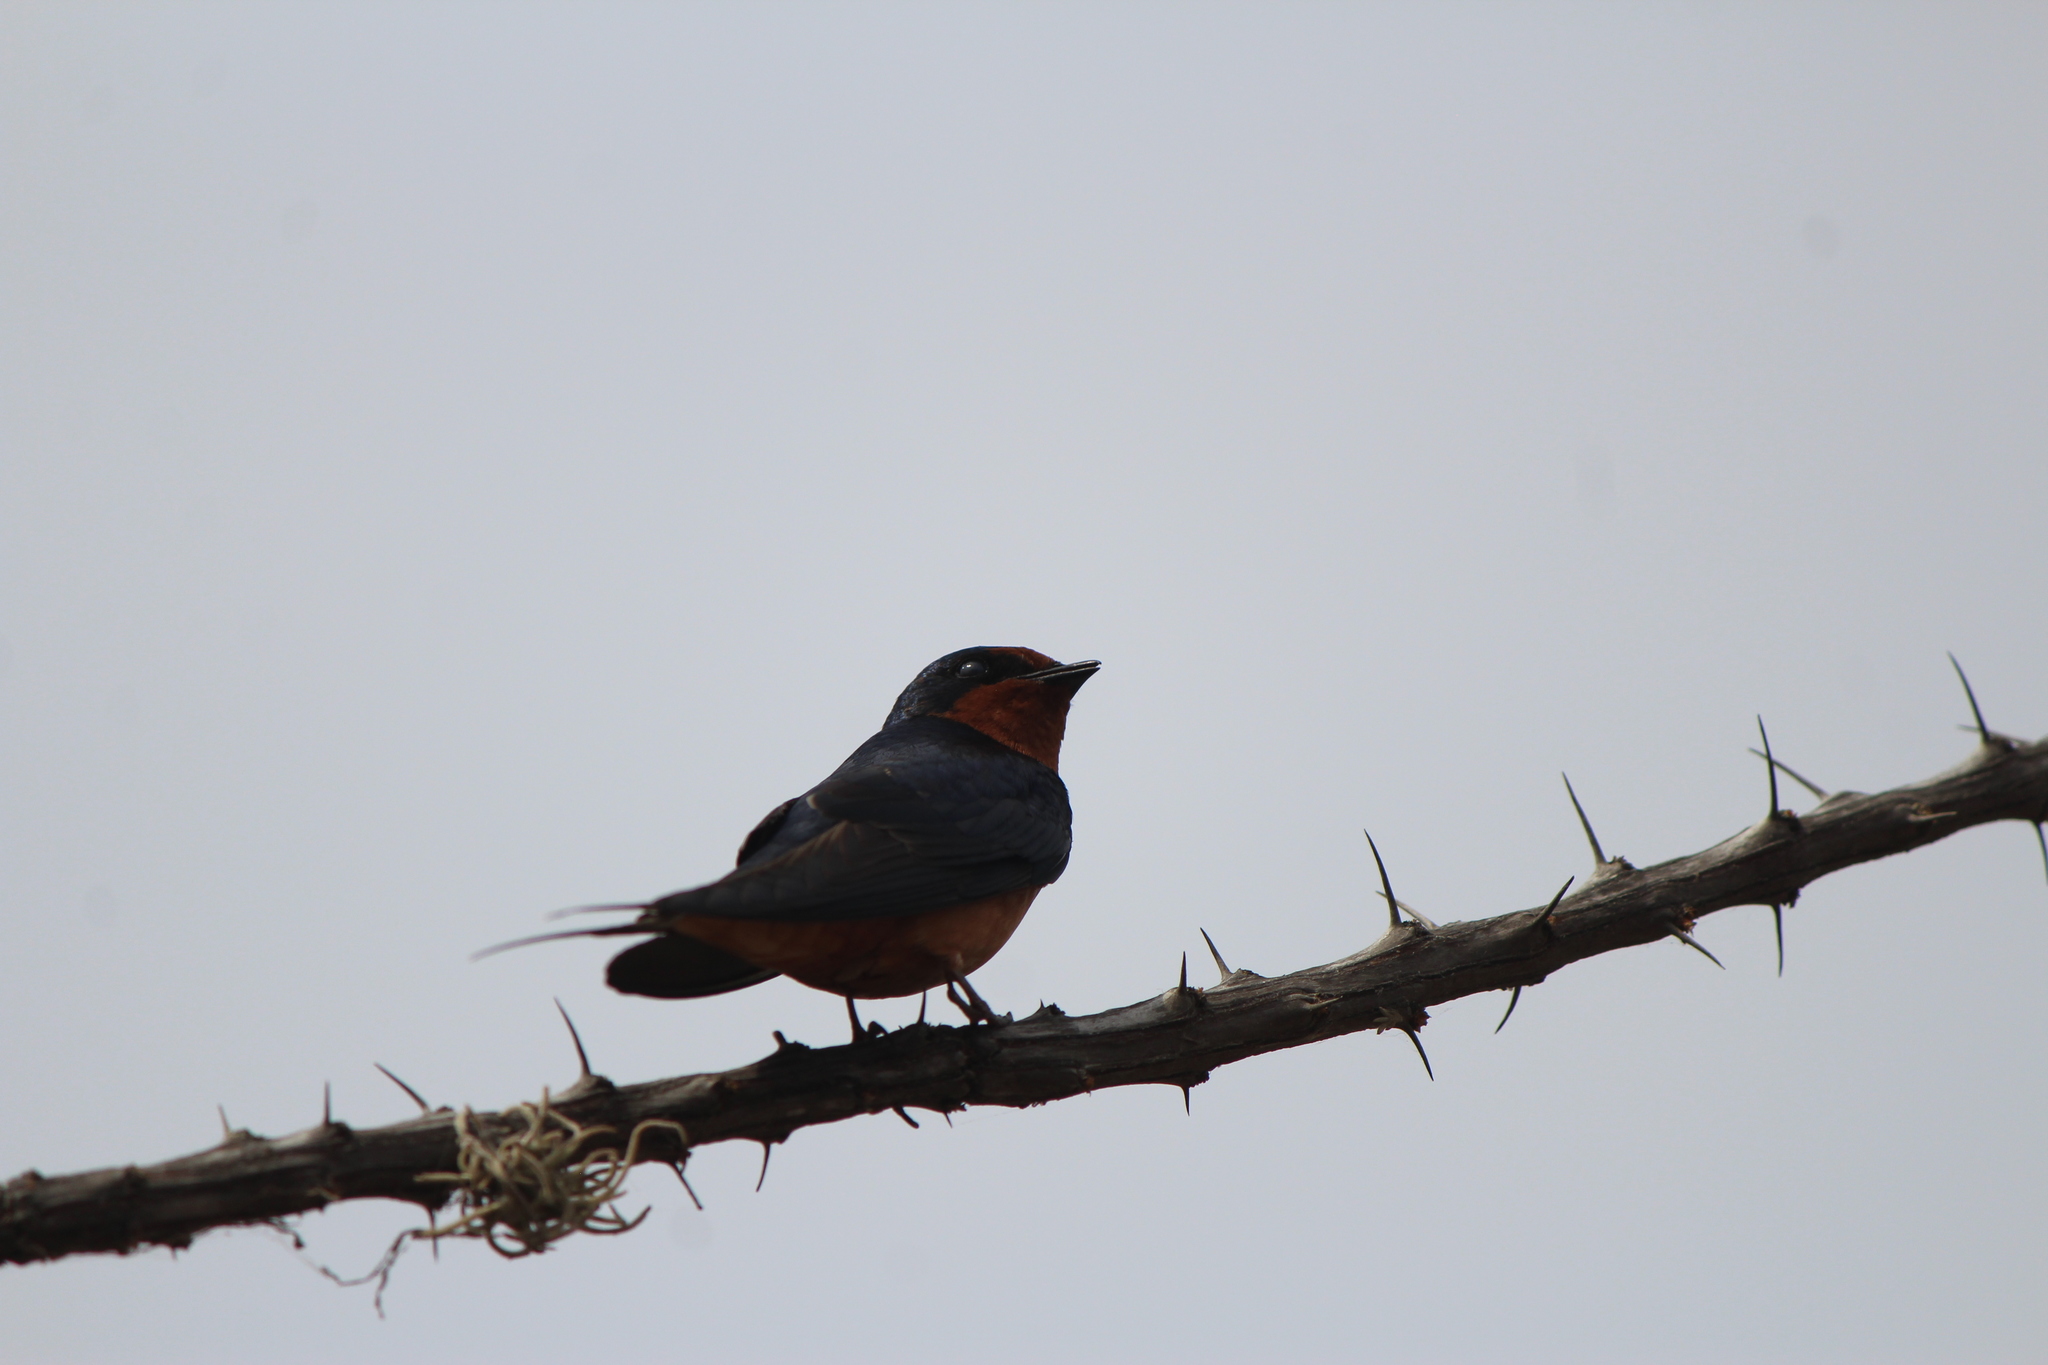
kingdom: Animalia
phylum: Chordata
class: Aves
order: Passeriformes
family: Hirundinidae
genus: Hirundo
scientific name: Hirundo rustica
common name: Barn swallow
